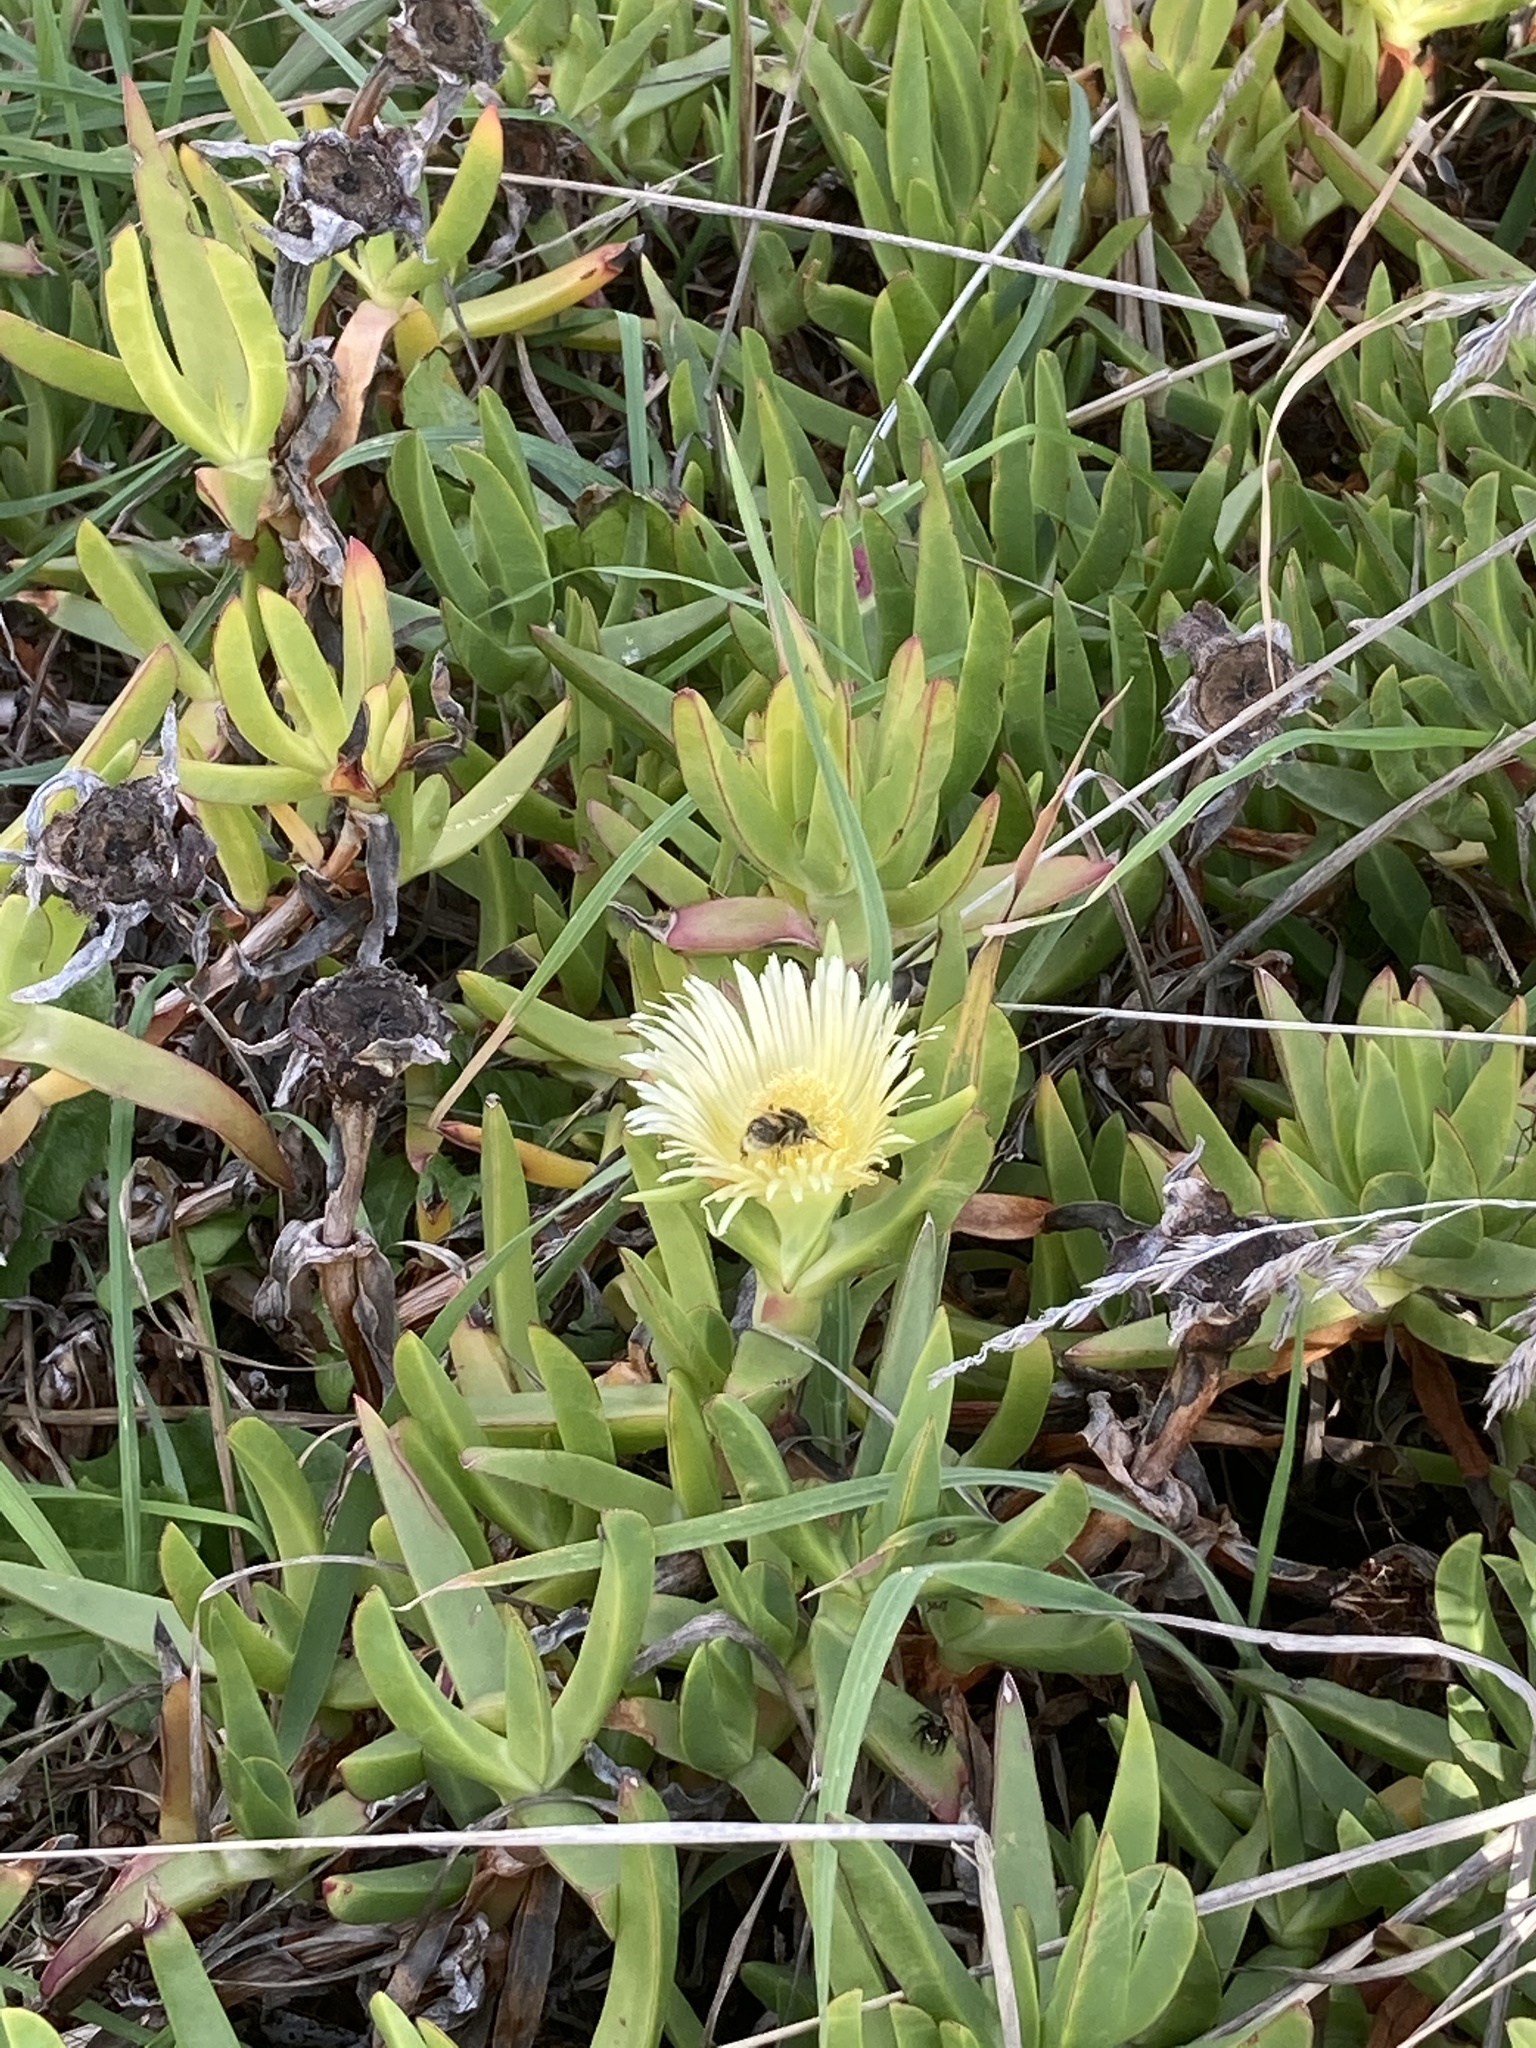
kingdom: Animalia
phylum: Arthropoda
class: Insecta
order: Hymenoptera
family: Apidae
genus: Bombus
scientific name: Bombus terrestris
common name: Buff-tailed bumblebee
